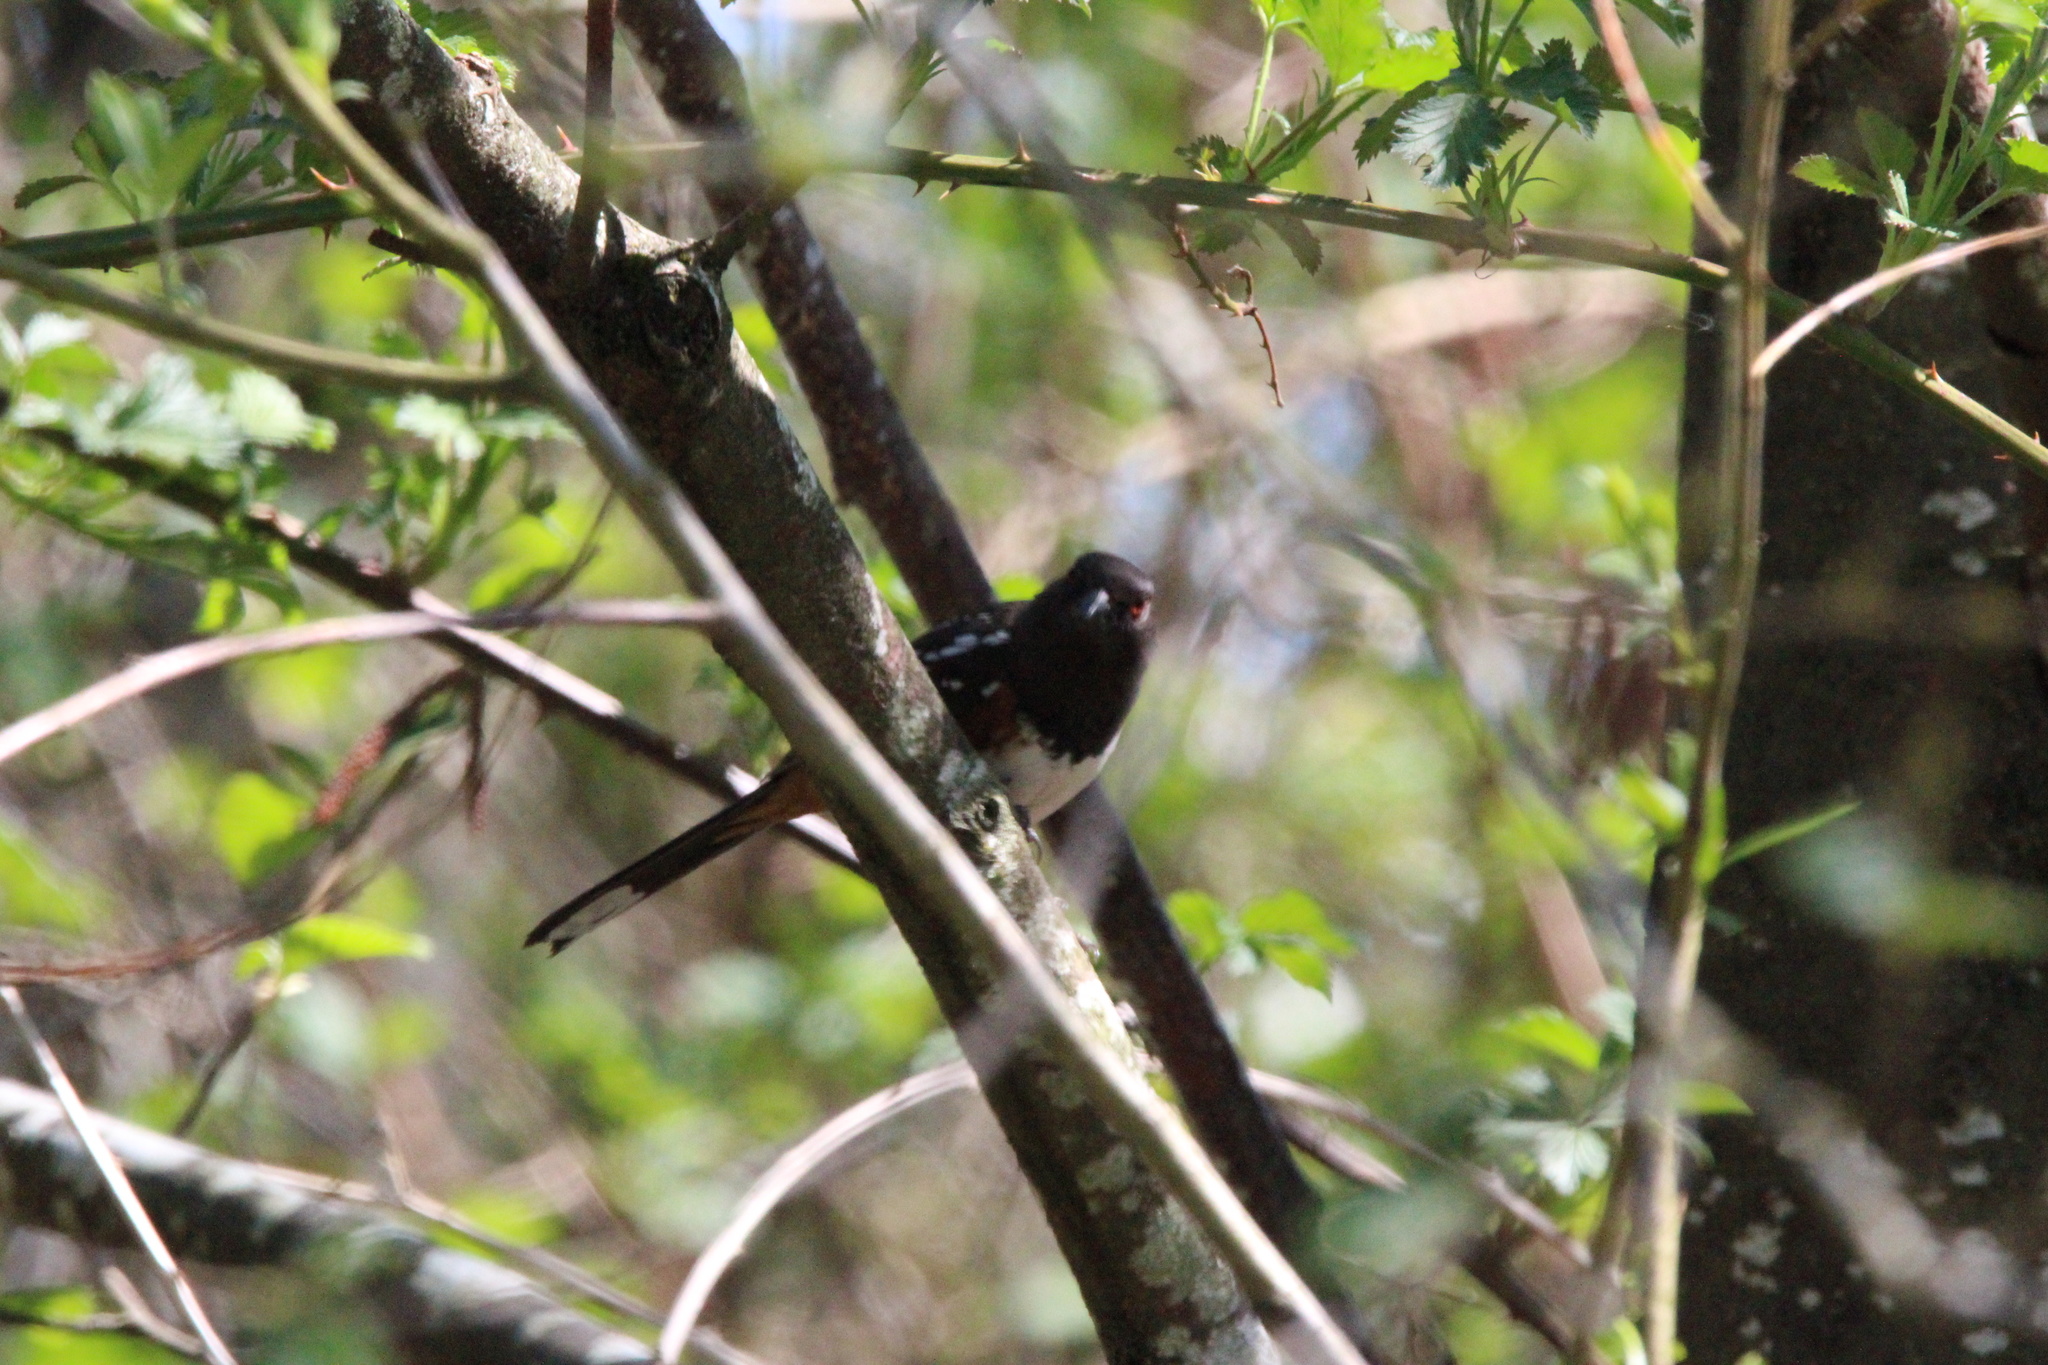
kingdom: Animalia
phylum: Chordata
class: Aves
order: Passeriformes
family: Passerellidae
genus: Pipilo
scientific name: Pipilo maculatus
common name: Spotted towhee
